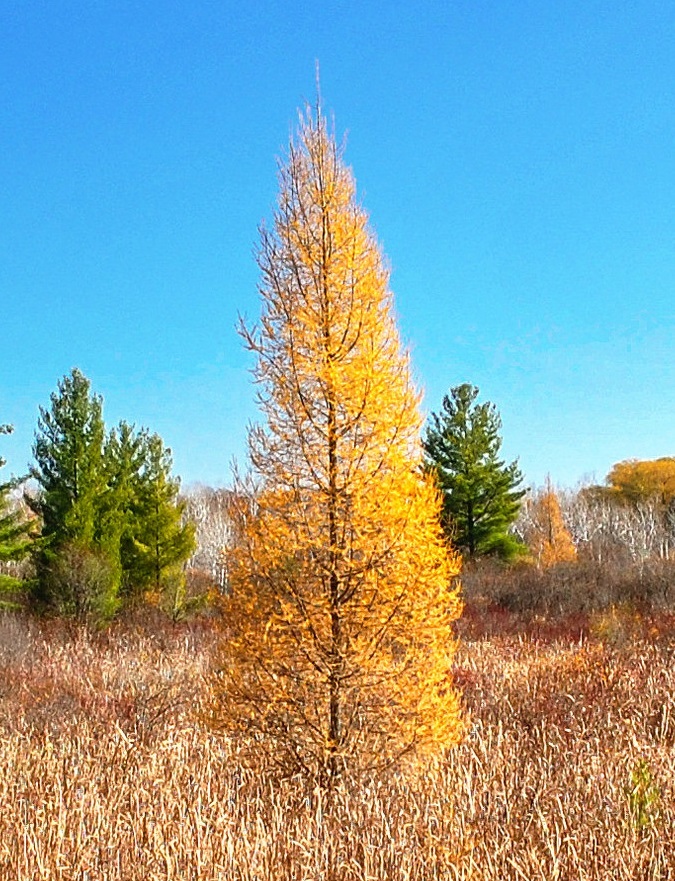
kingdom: Plantae
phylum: Tracheophyta
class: Pinopsida
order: Pinales
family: Pinaceae
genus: Larix
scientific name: Larix laricina
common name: American larch
